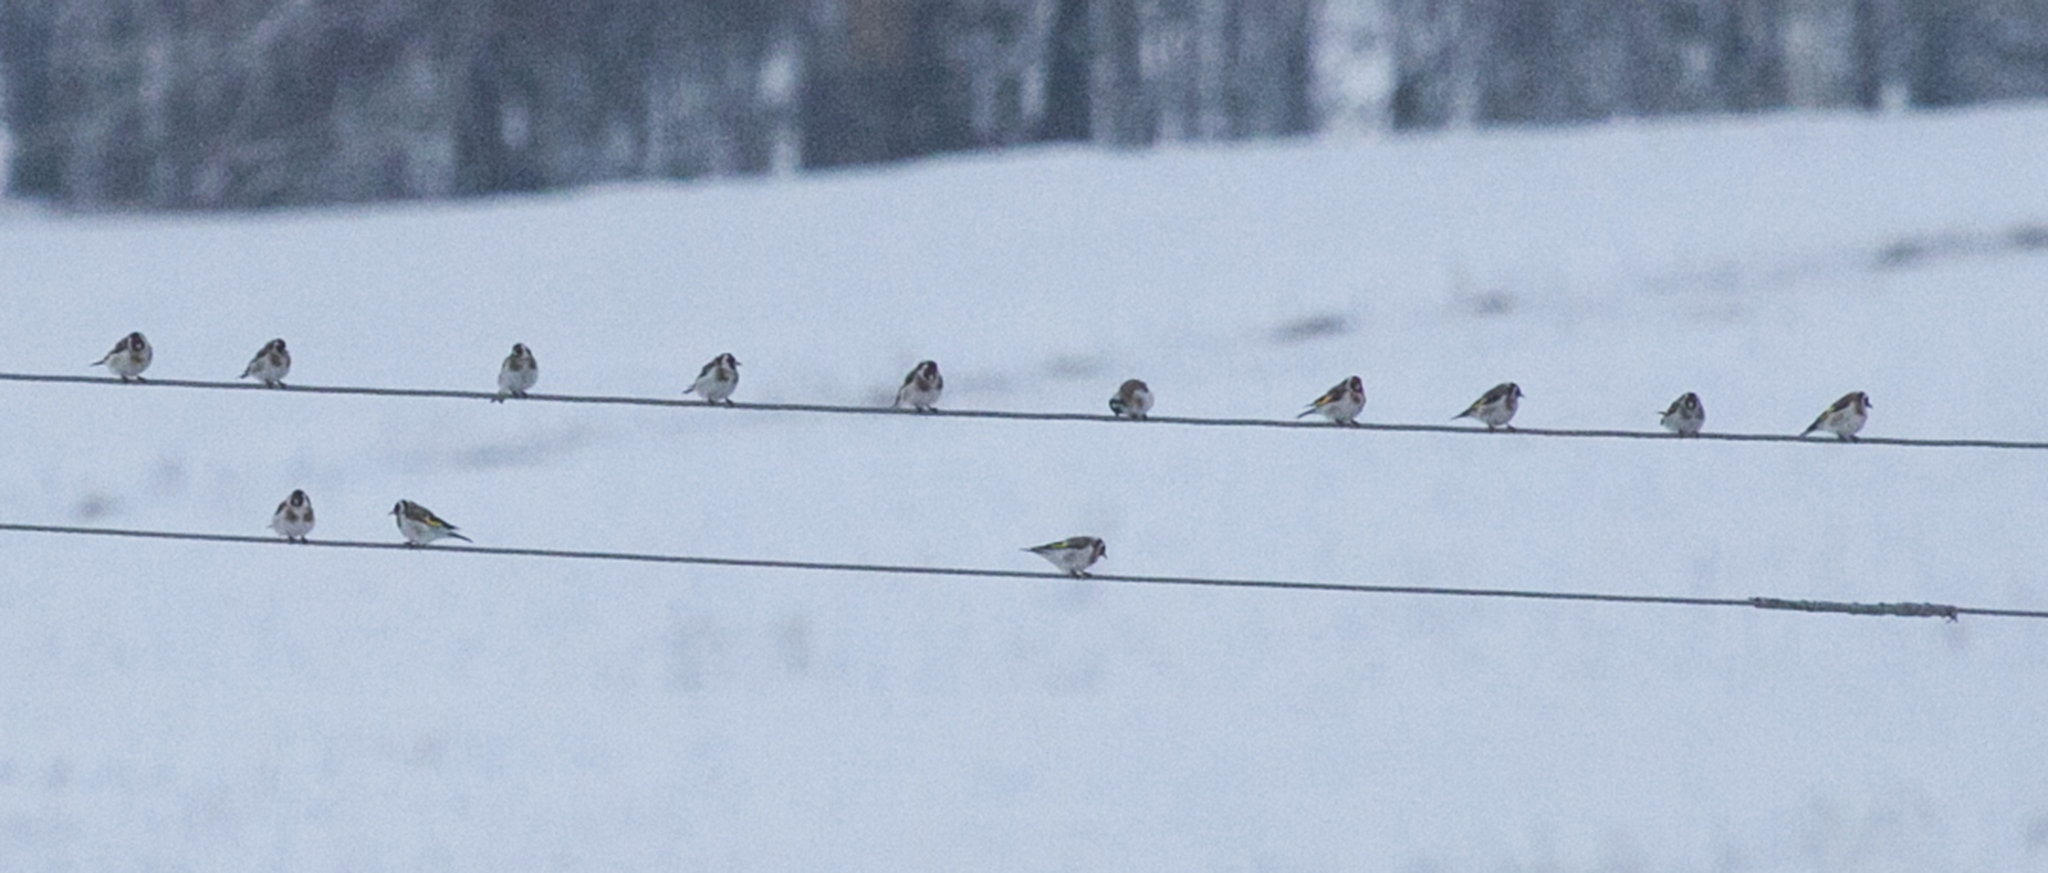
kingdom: Animalia
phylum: Chordata
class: Aves
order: Passeriformes
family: Fringillidae
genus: Carduelis
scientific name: Carduelis carduelis
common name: European goldfinch
